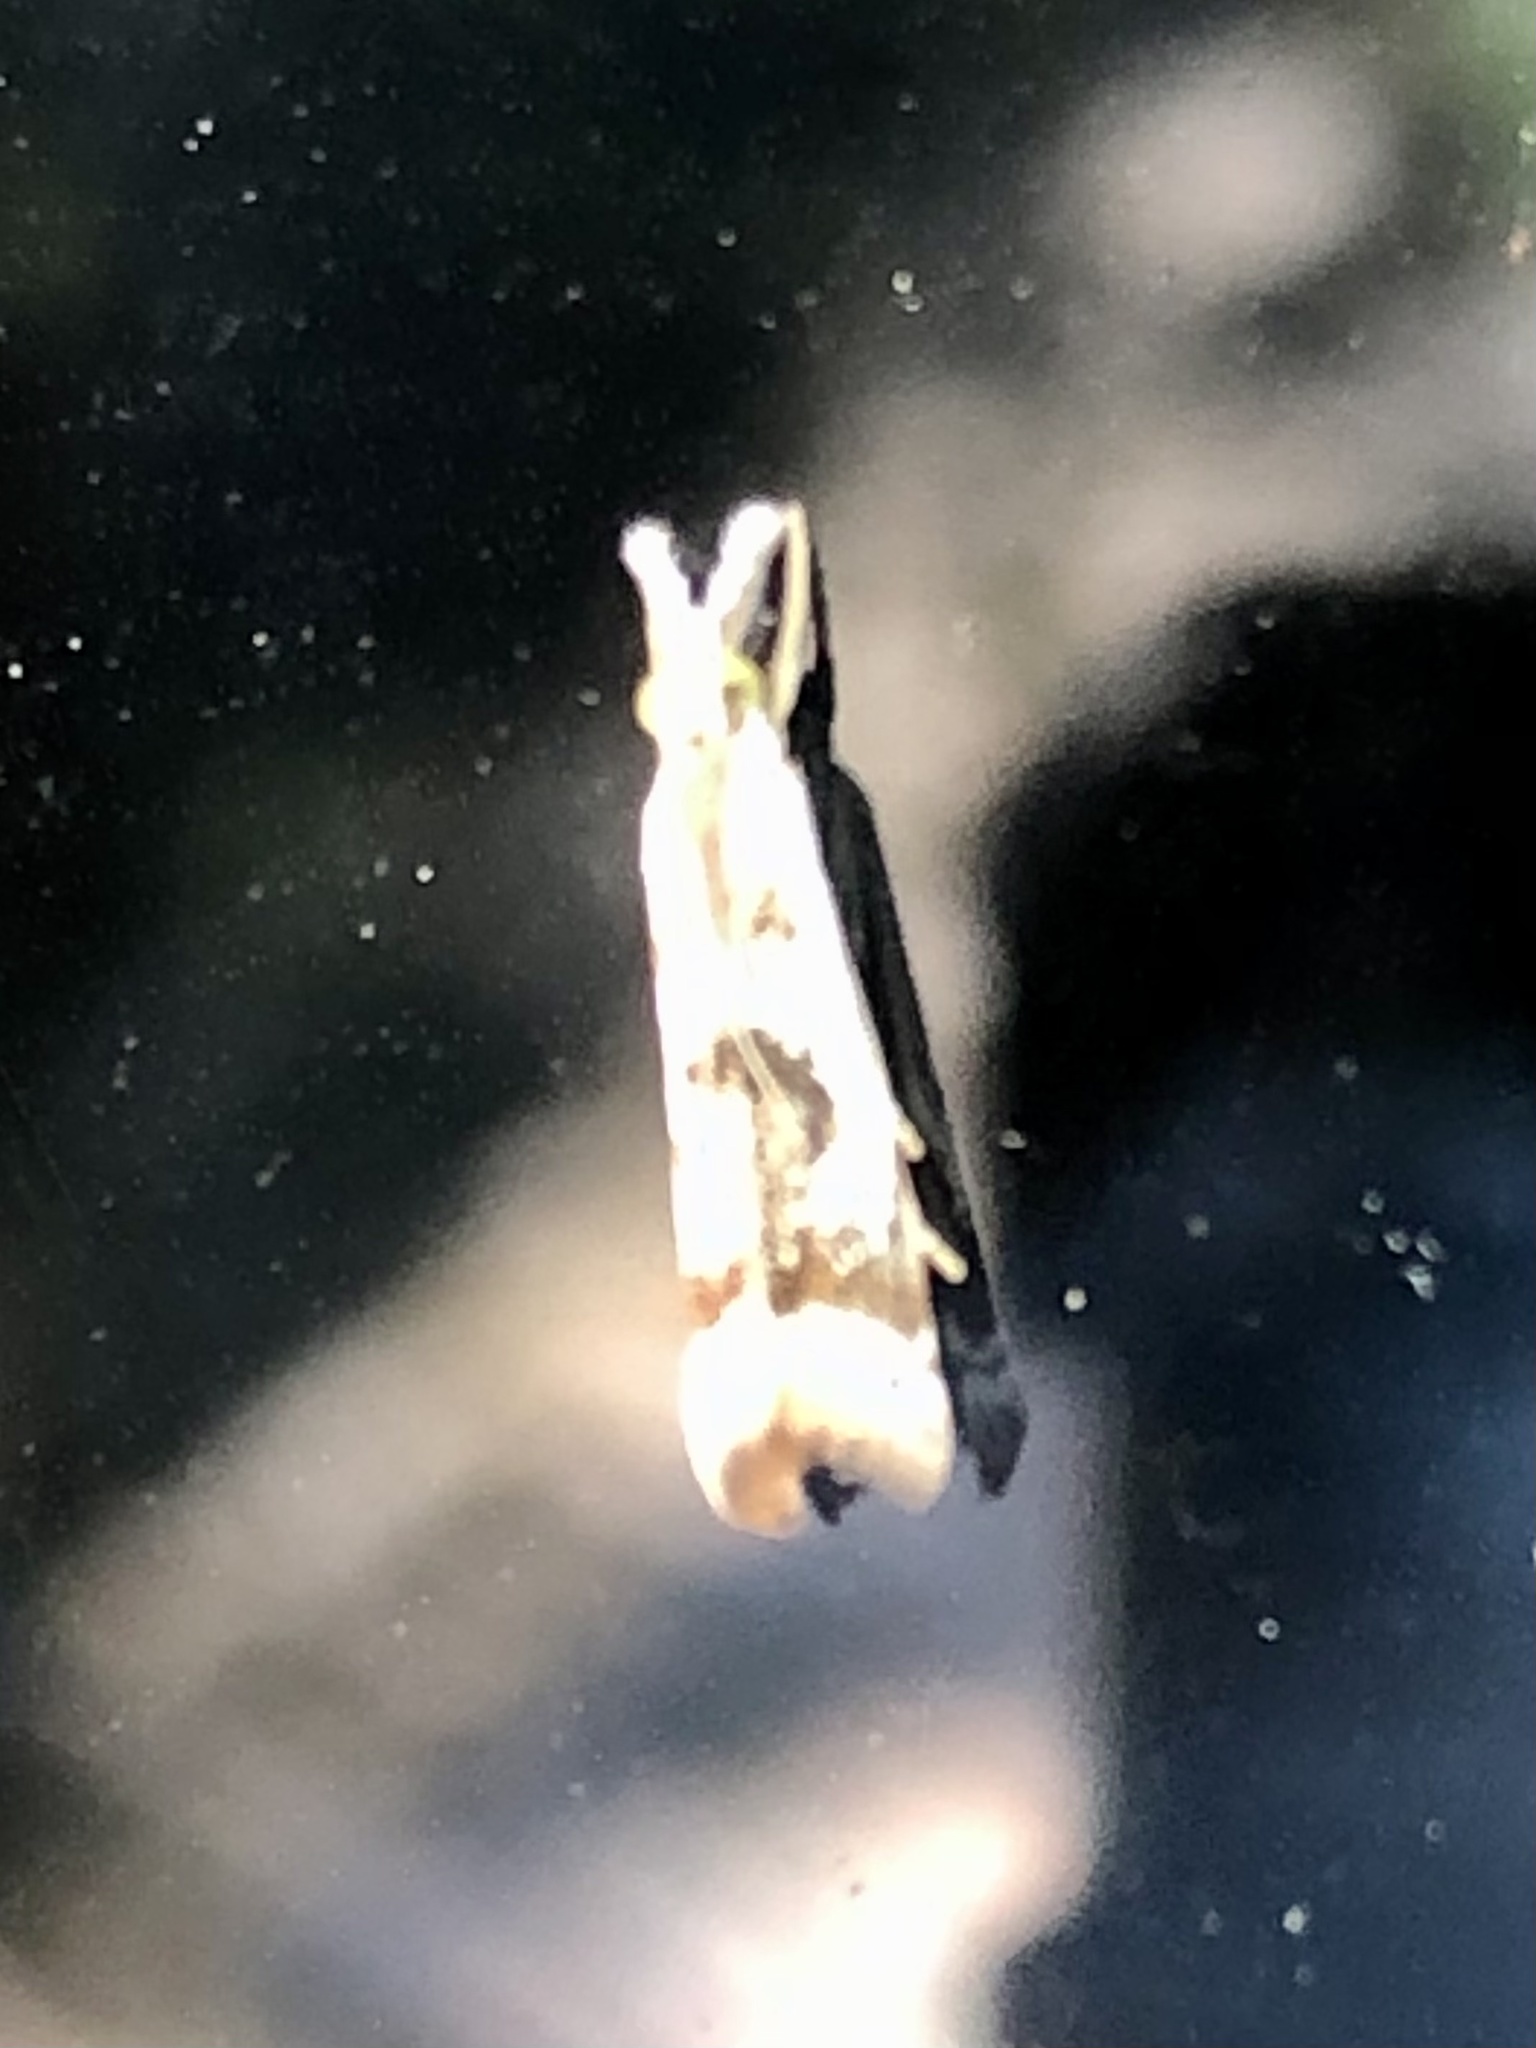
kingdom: Animalia
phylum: Arthropoda
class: Insecta
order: Lepidoptera
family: Crambidae
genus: Microcrambus
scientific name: Microcrambus elegans
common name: Elegant grass-veneer
